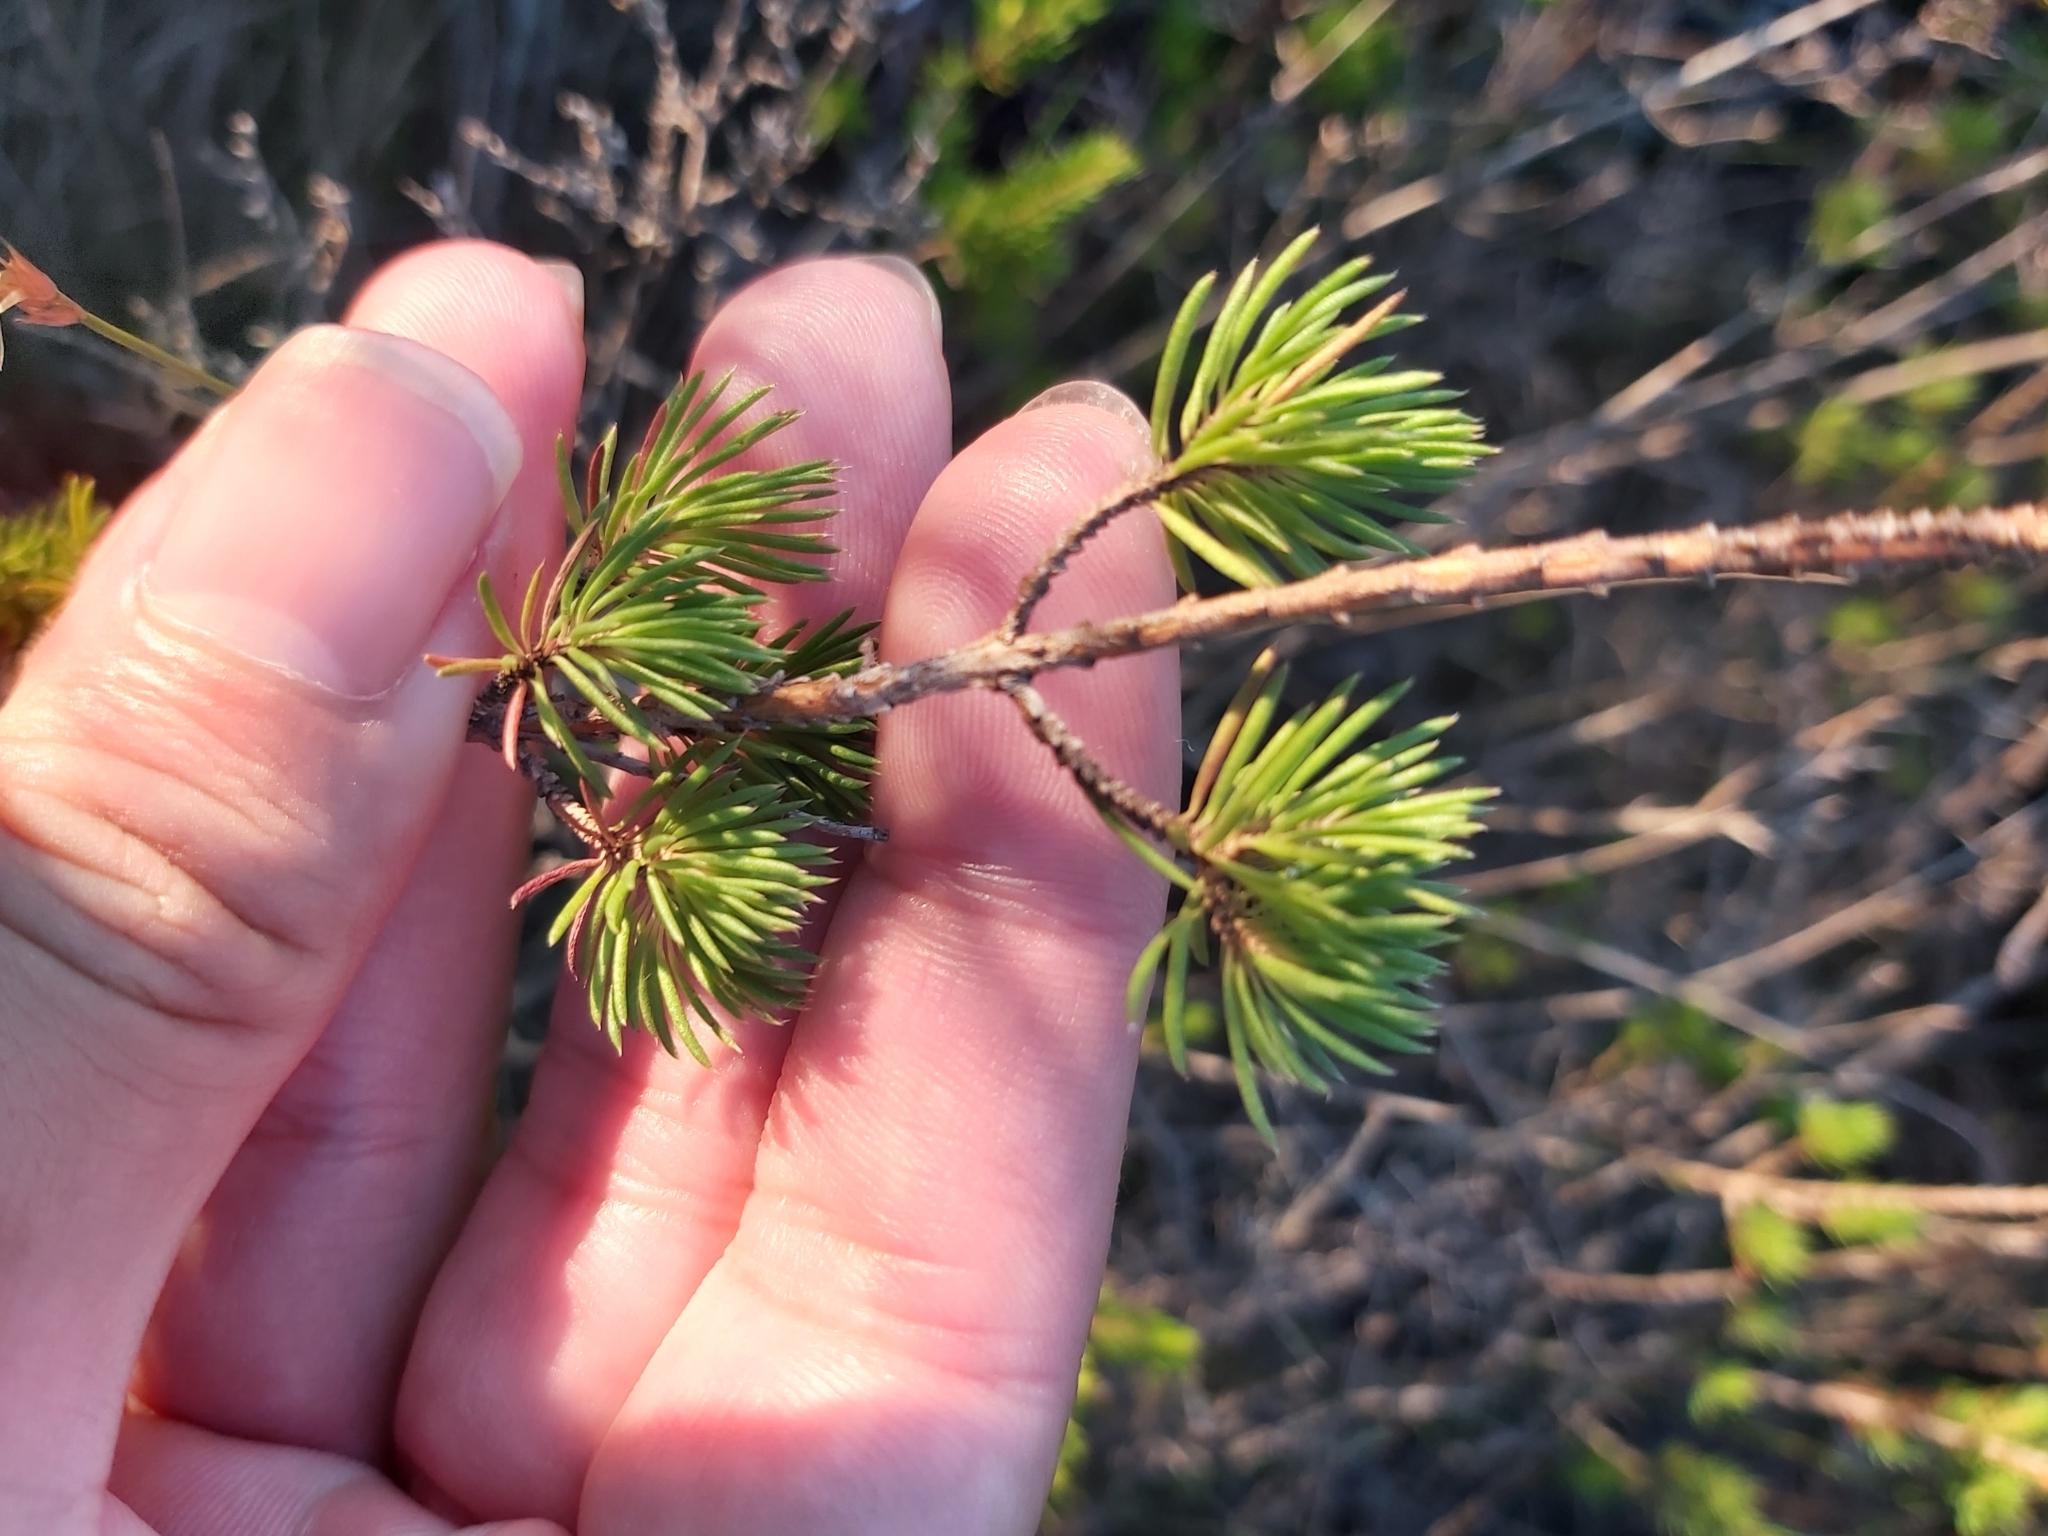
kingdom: Plantae
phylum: Tracheophyta
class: Magnoliopsida
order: Myrtales
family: Myrtaceae
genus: Darwinia
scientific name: Darwinia fascicularis
